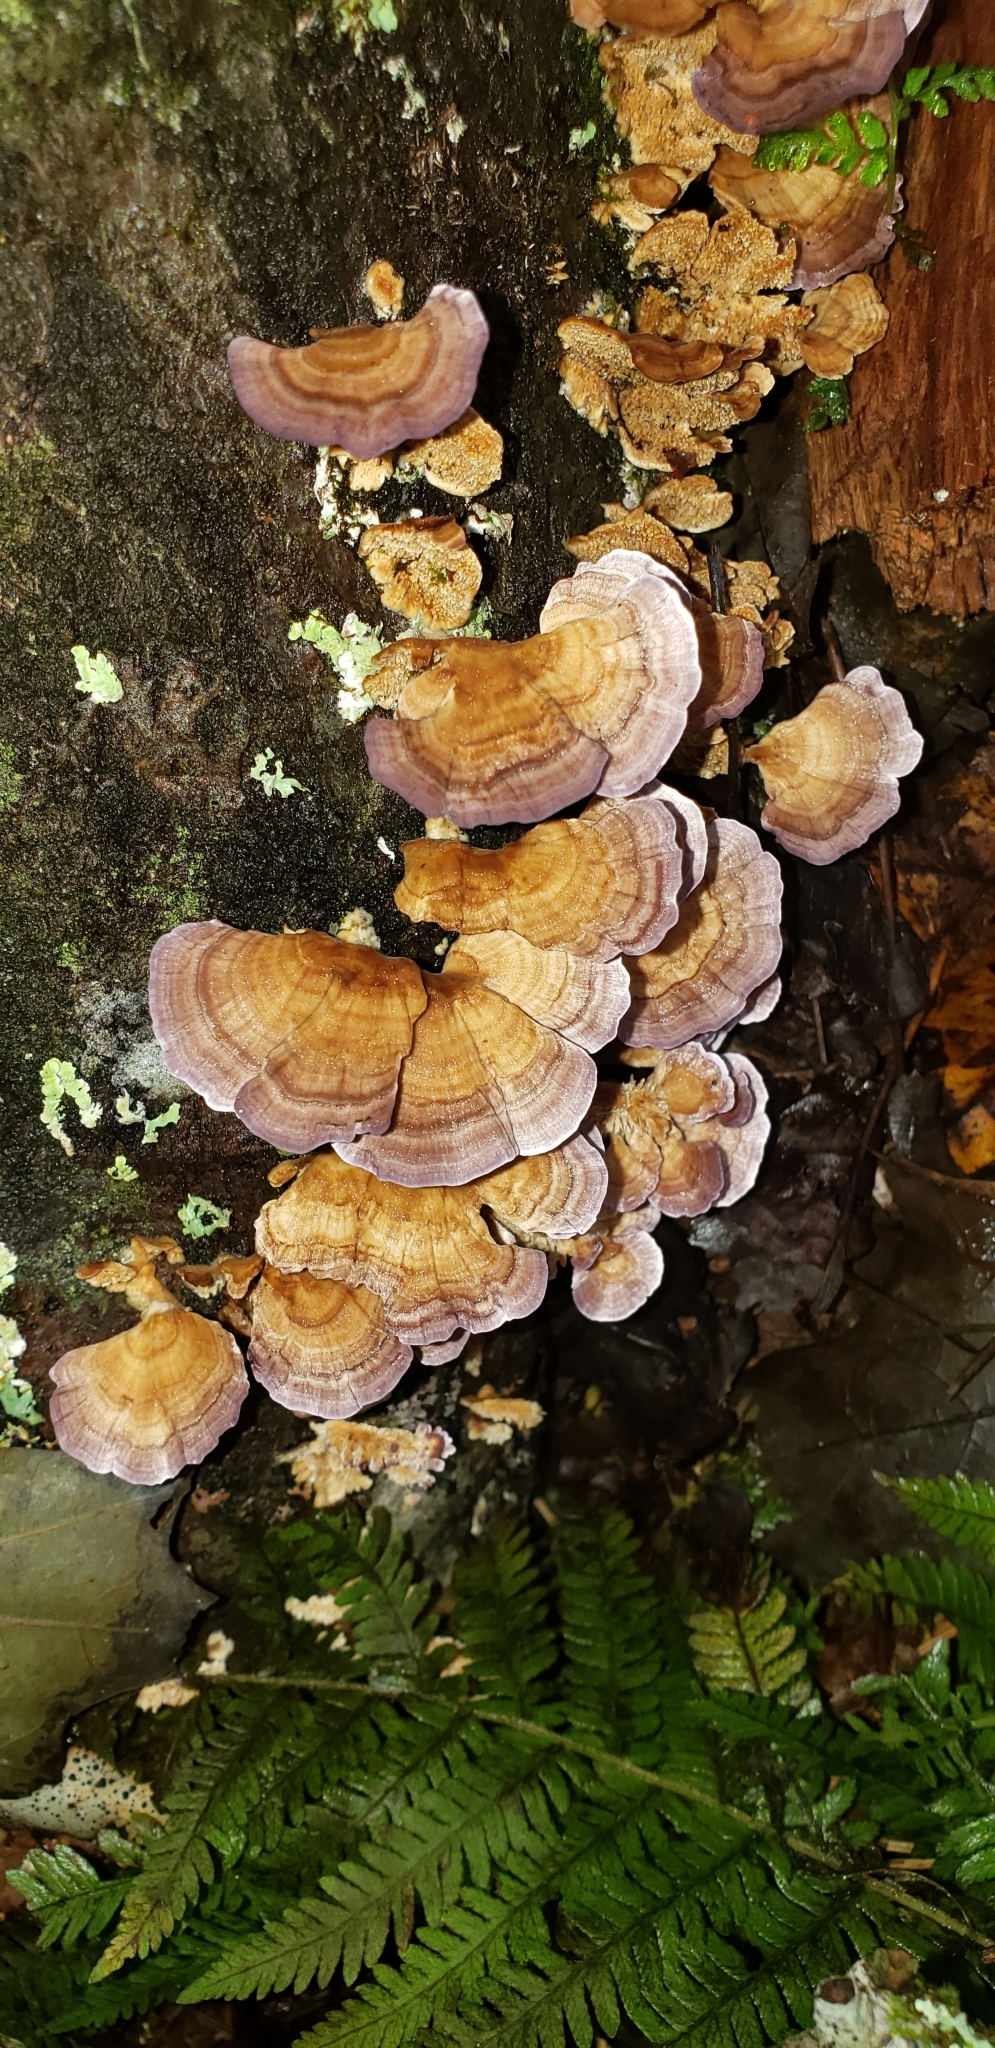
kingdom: Fungi
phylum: Basidiomycota
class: Agaricomycetes
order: Hymenochaetales
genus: Trichaptum
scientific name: Trichaptum biforme
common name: Violet-toothed polypore
